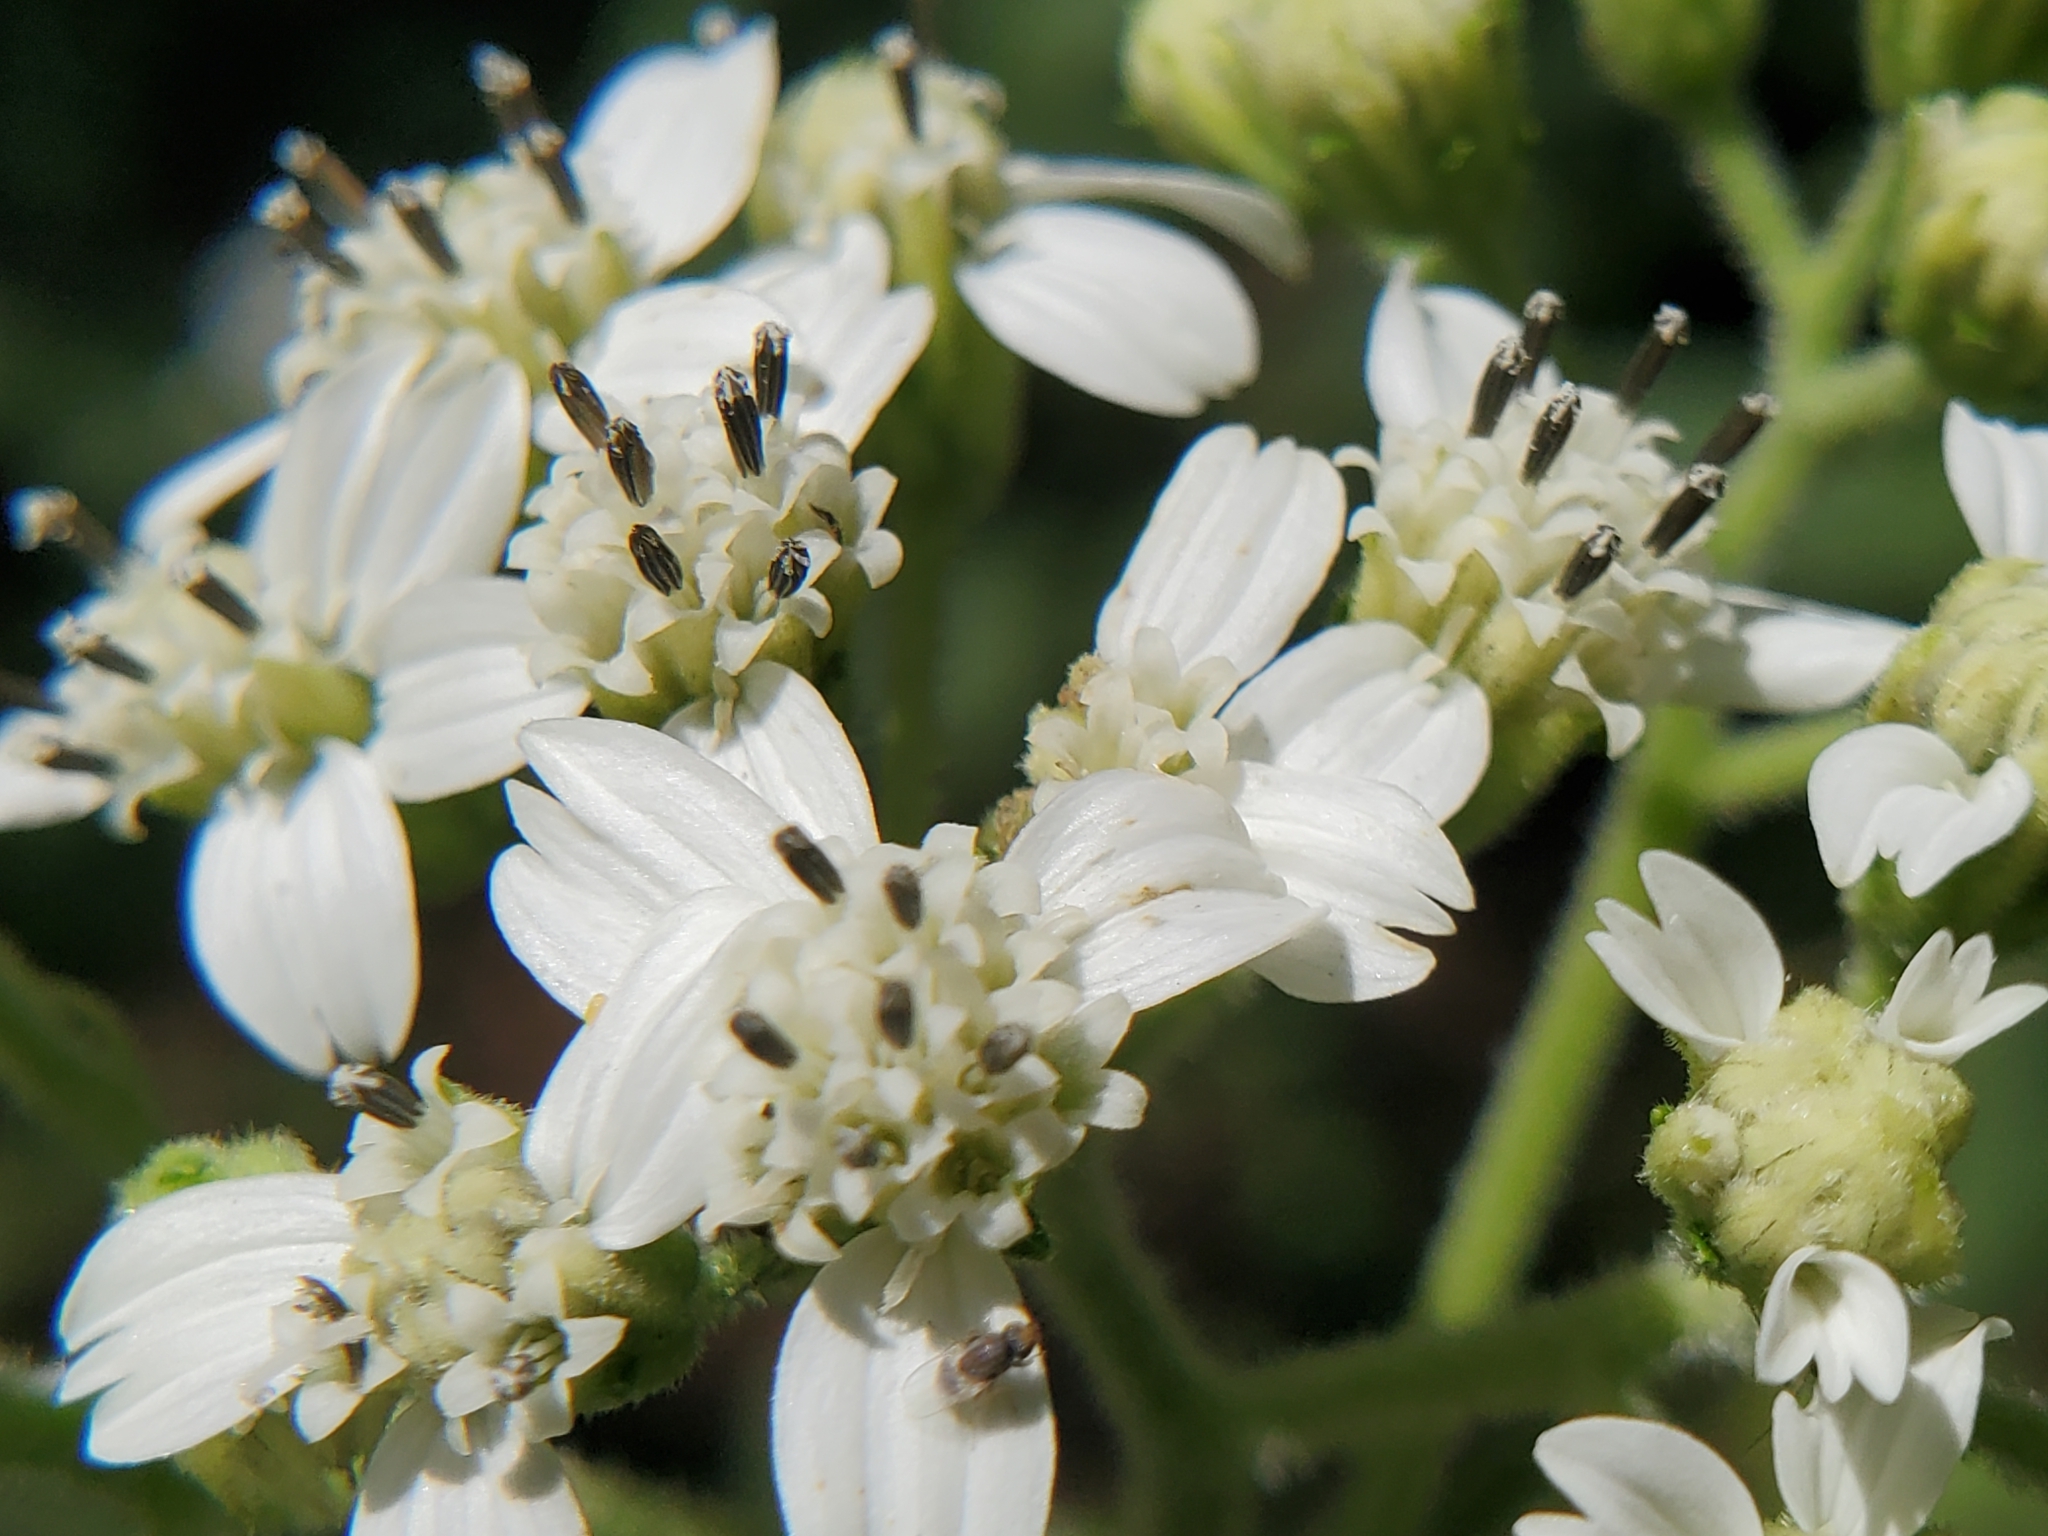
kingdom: Plantae
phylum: Tracheophyta
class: Magnoliopsida
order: Asterales
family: Asteraceae
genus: Verbesina
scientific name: Verbesina virginica
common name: Frostweed
